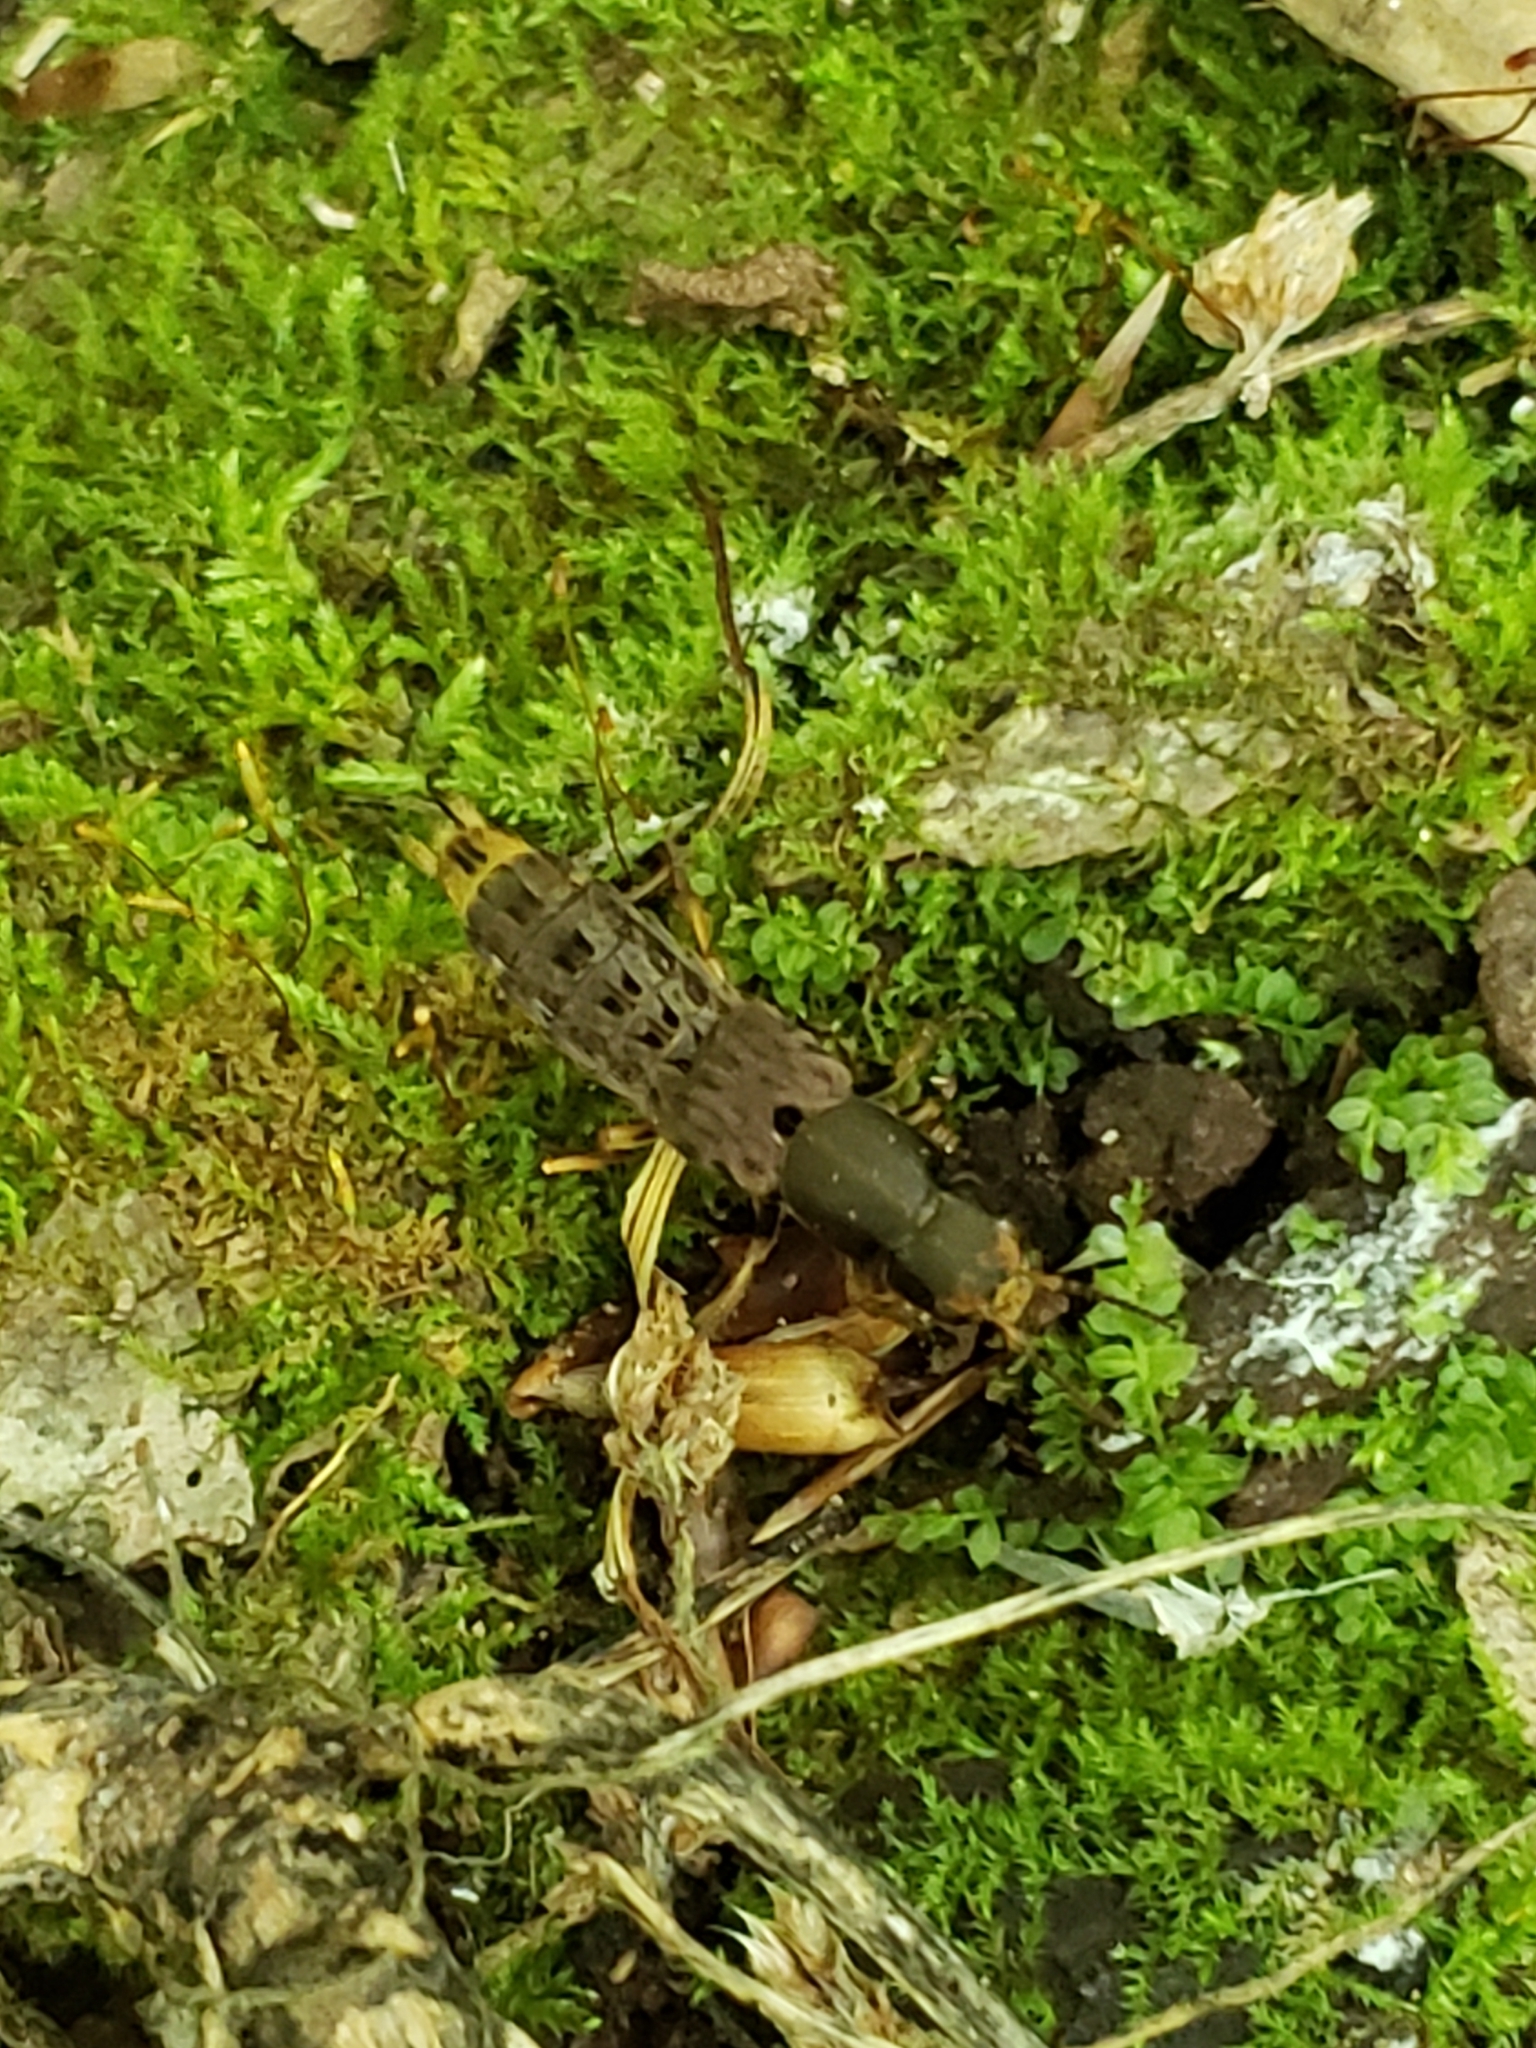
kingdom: Animalia
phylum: Arthropoda
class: Insecta
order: Coleoptera
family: Staphylinidae
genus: Platydracus
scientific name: Platydracus maculosus
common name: Brown rove beetle
